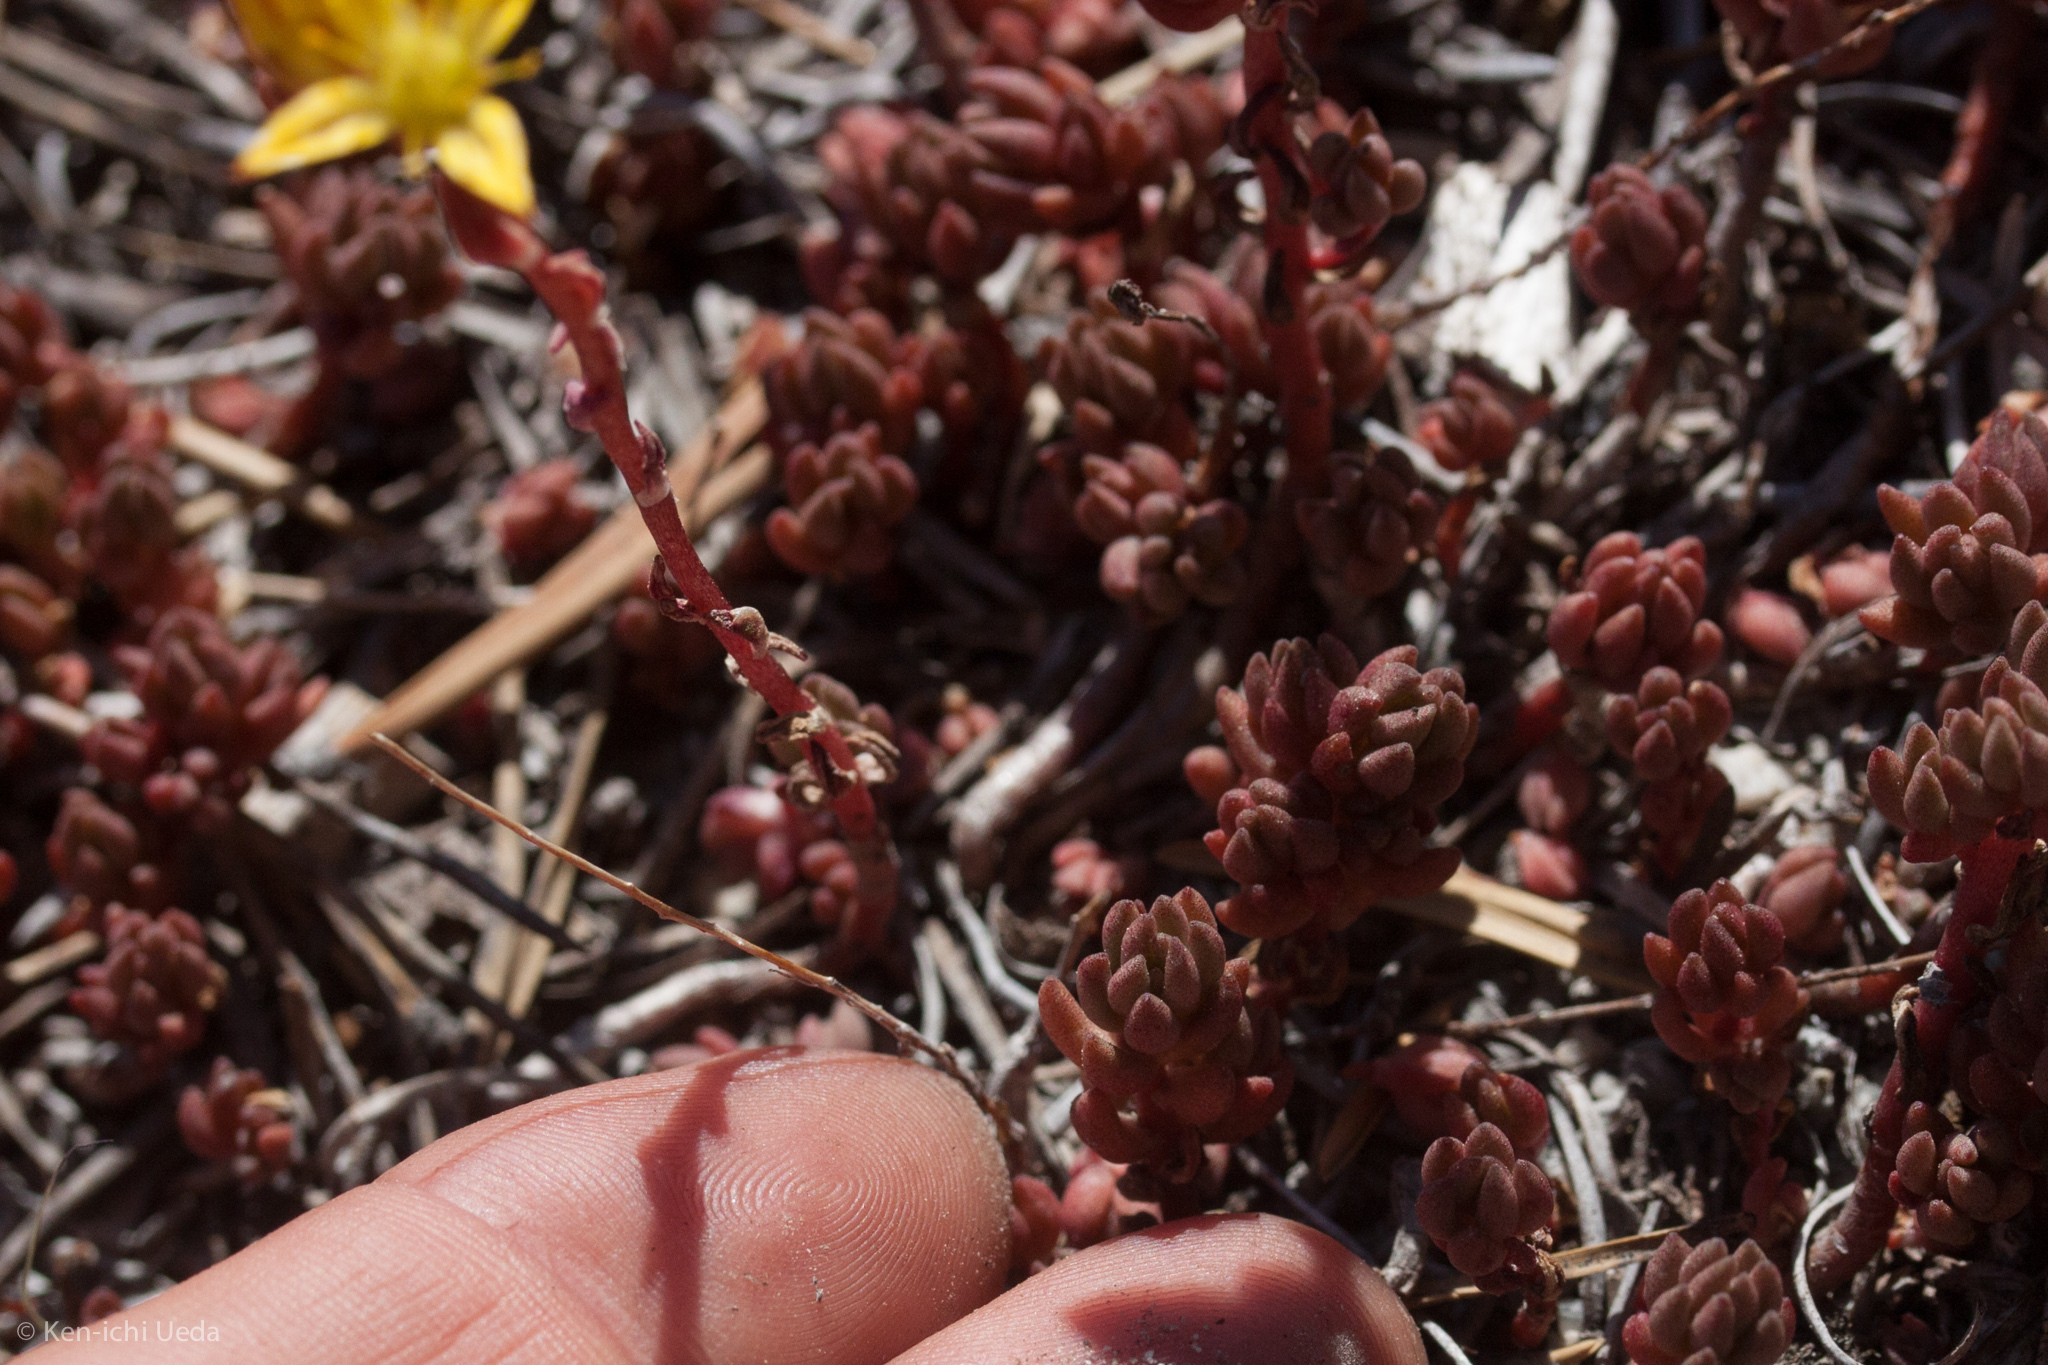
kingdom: Plantae
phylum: Tracheophyta
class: Magnoliopsida
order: Saxifragales
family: Crassulaceae
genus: Sedum
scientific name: Sedum lanceolatum
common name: Common stonecrop
